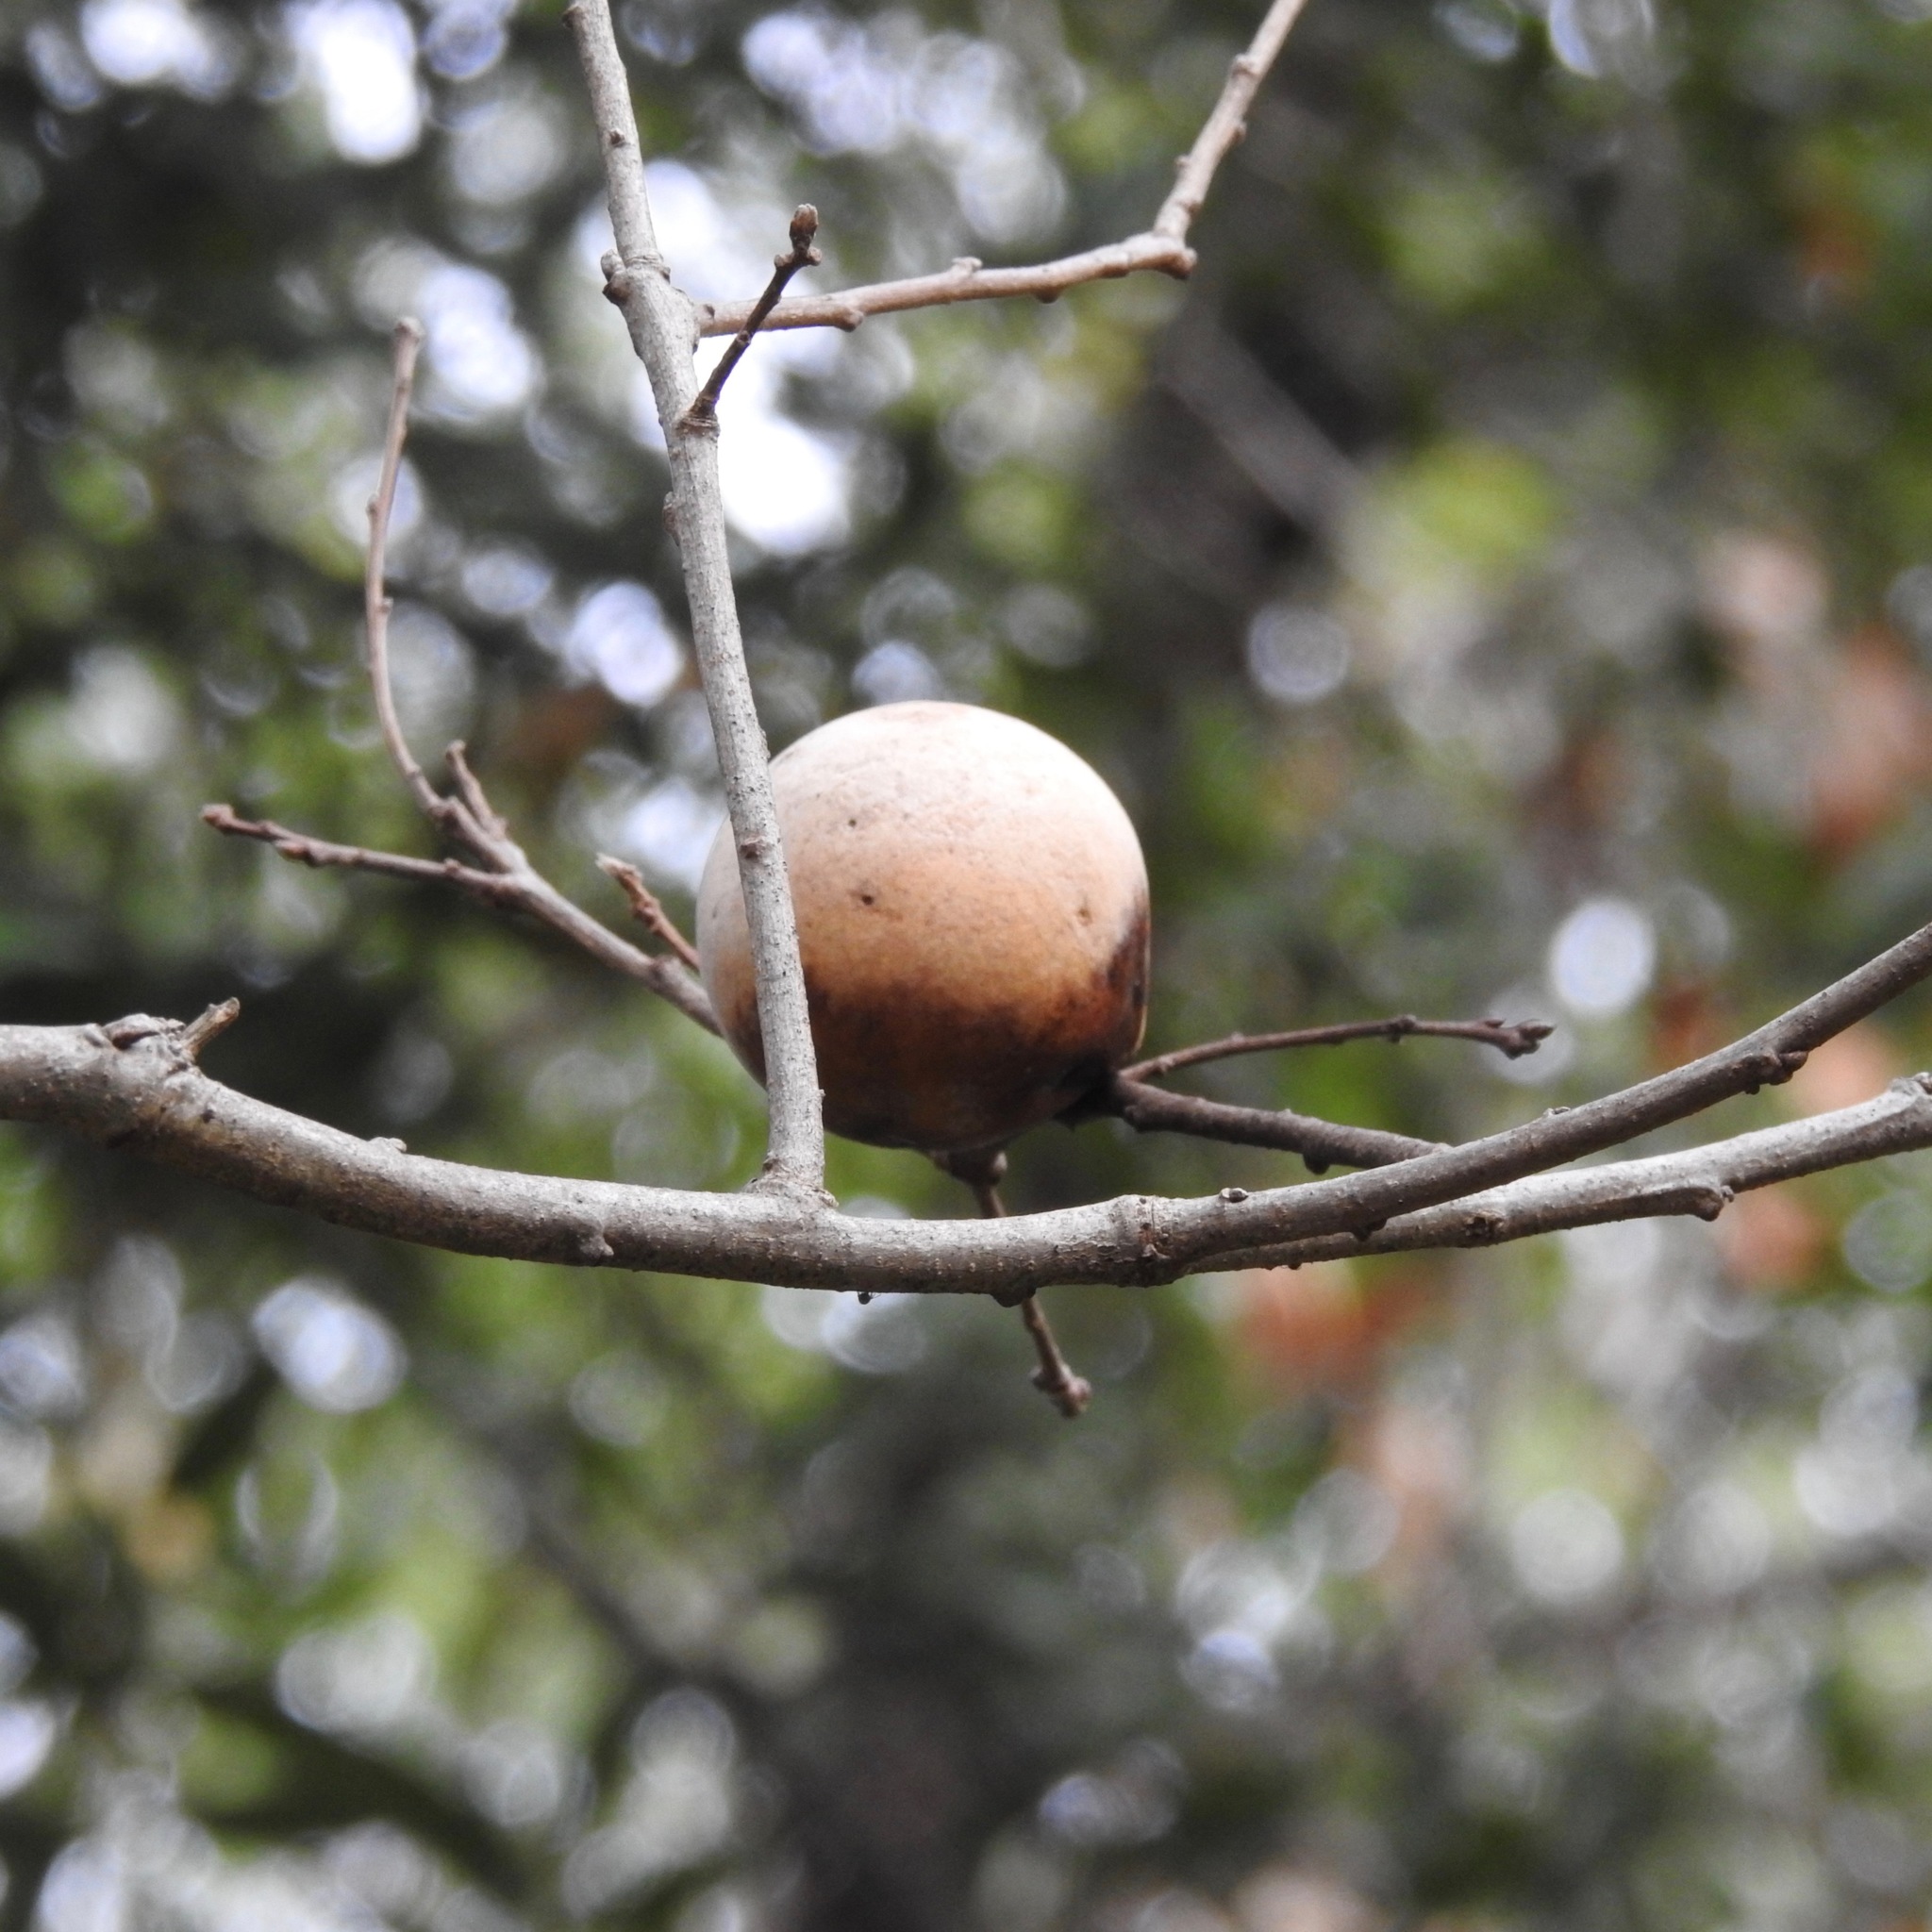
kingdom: Animalia
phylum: Arthropoda
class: Insecta
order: Hymenoptera
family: Cynipidae
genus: Andricus
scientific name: Andricus quercuscalifornicus
